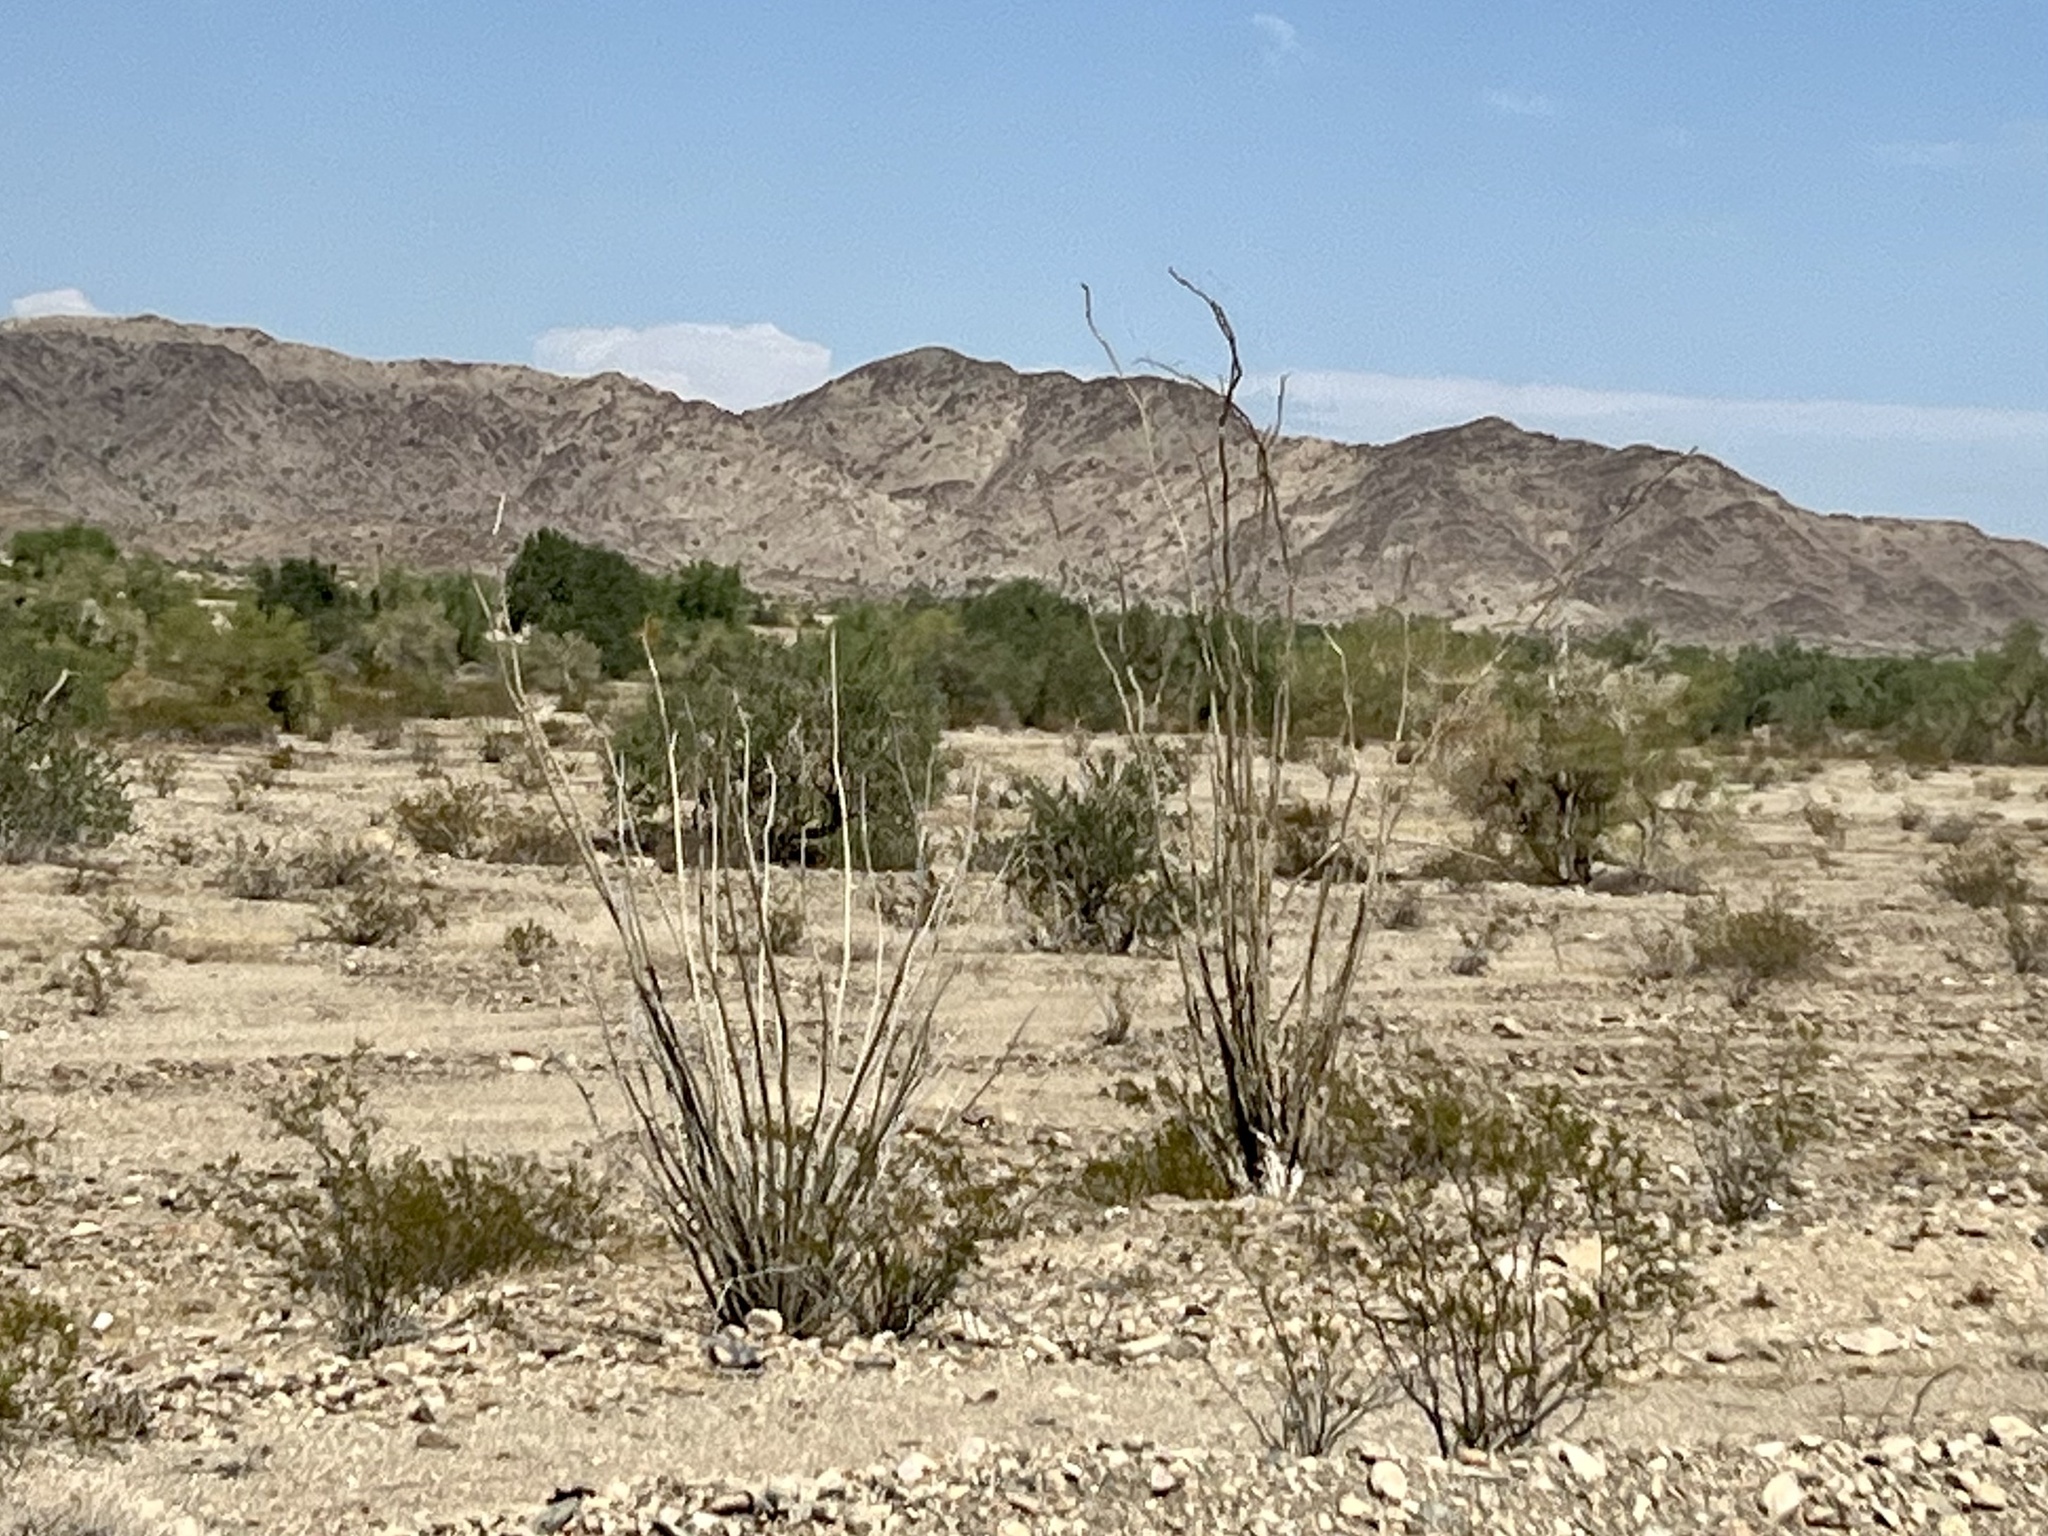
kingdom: Plantae
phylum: Tracheophyta
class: Magnoliopsida
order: Ericales
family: Fouquieriaceae
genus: Fouquieria
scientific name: Fouquieria splendens
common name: Vine-cactus
